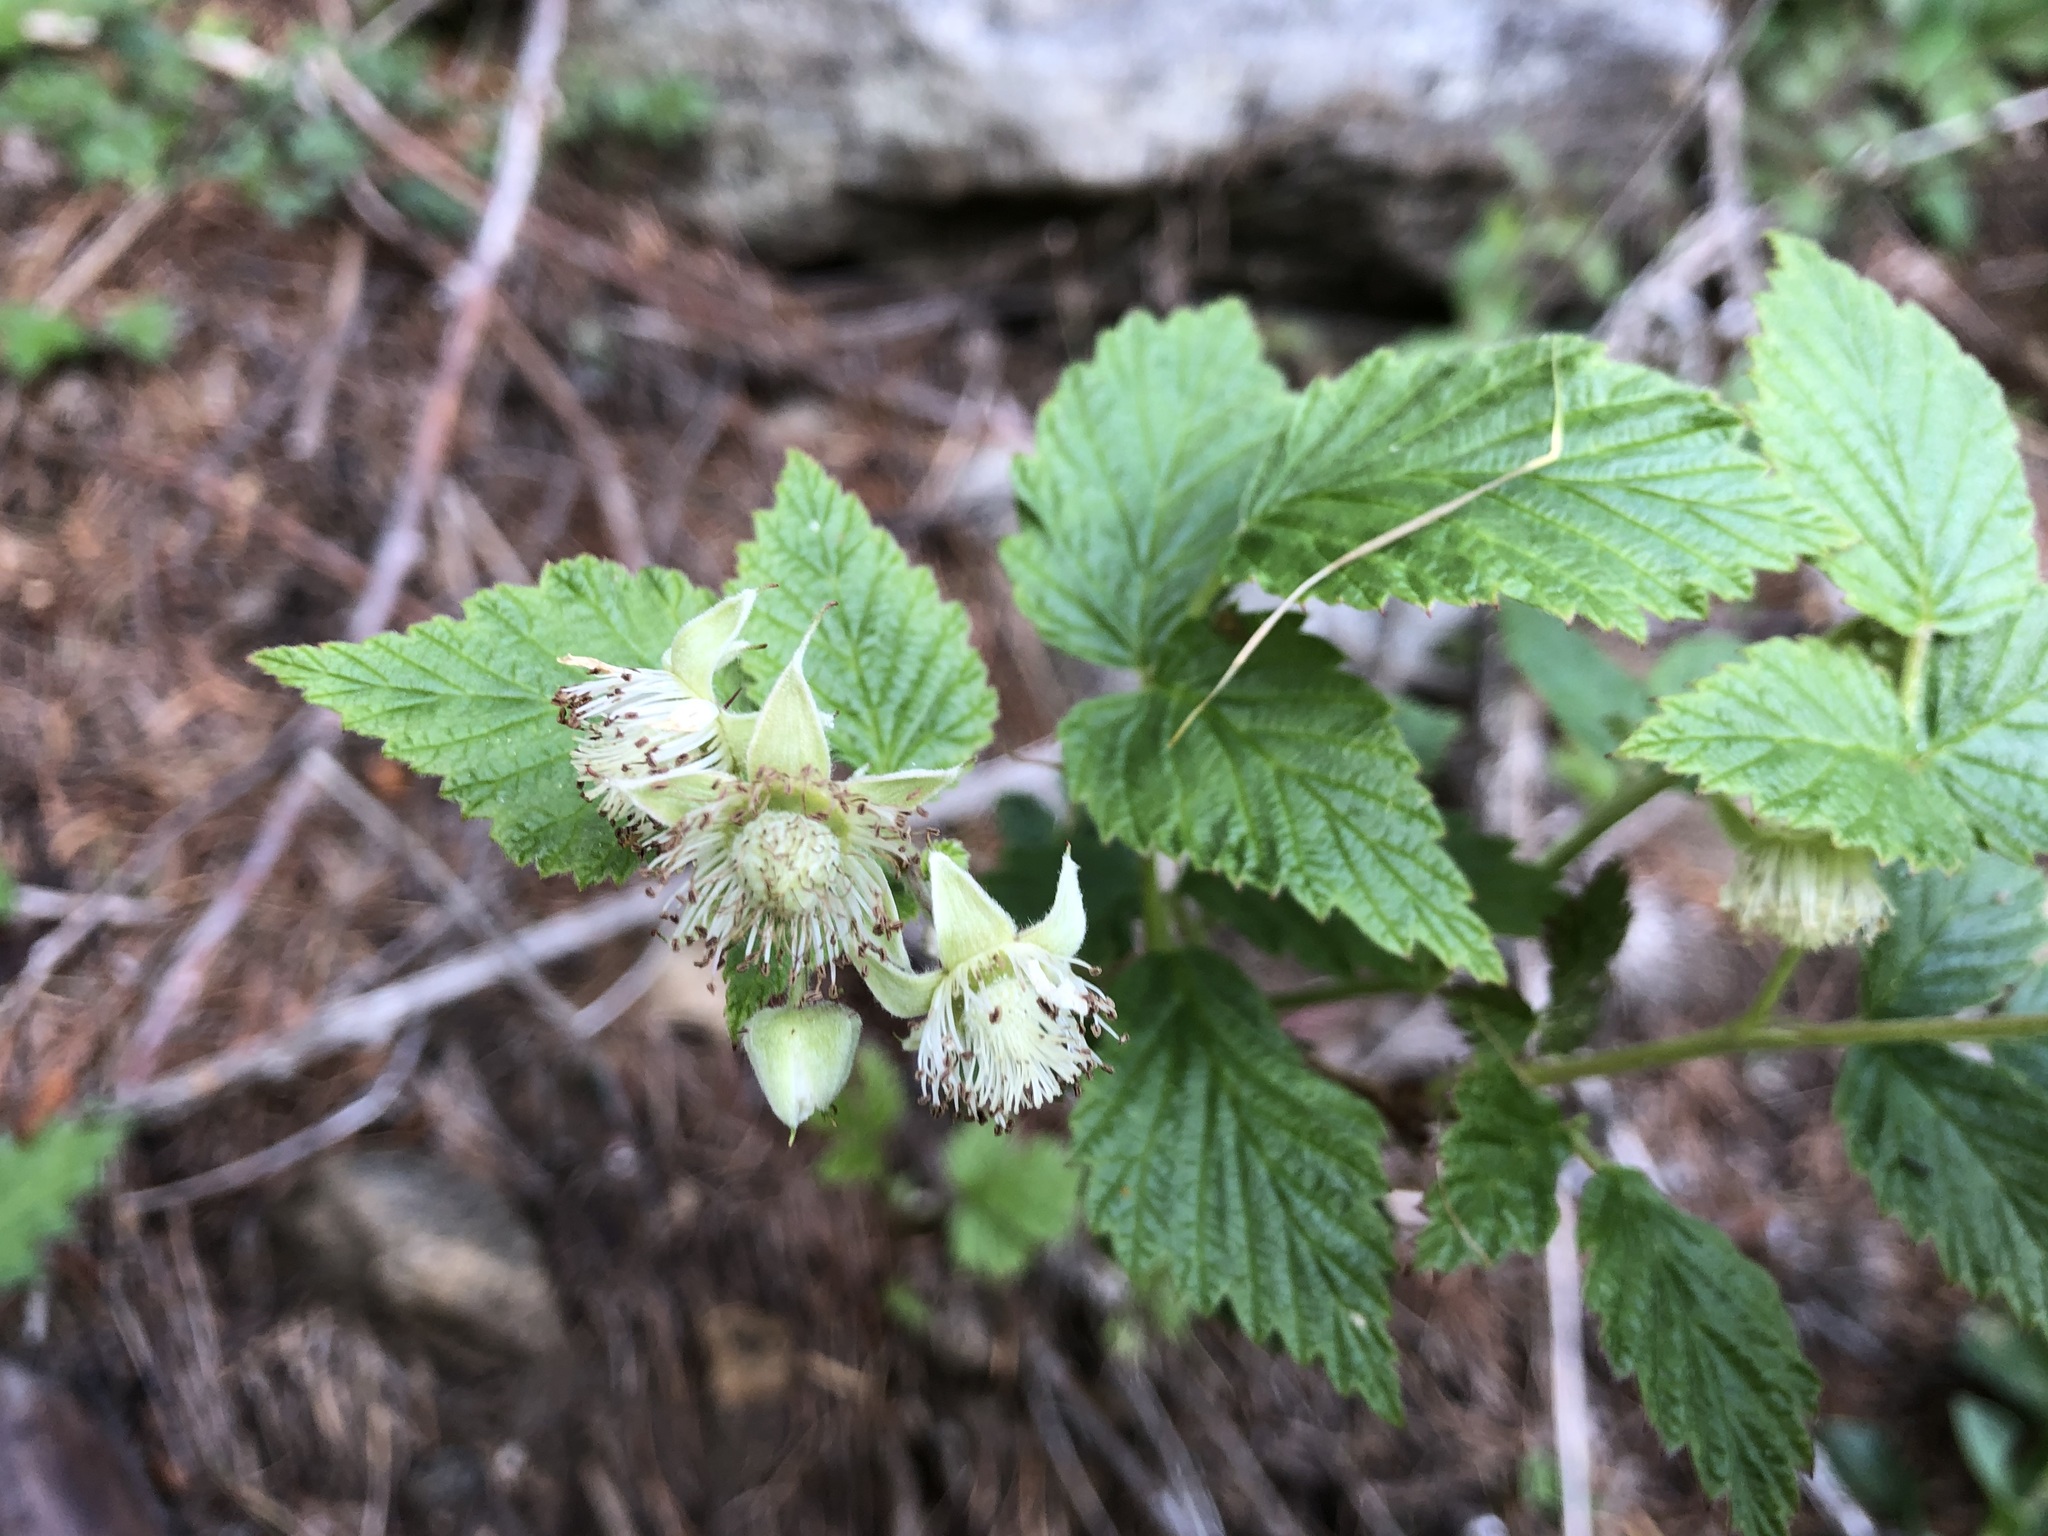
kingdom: Plantae
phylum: Tracheophyta
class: Magnoliopsida
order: Rosales
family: Rosaceae
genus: Rubus
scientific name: Rubus idaeus
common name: Raspberry
